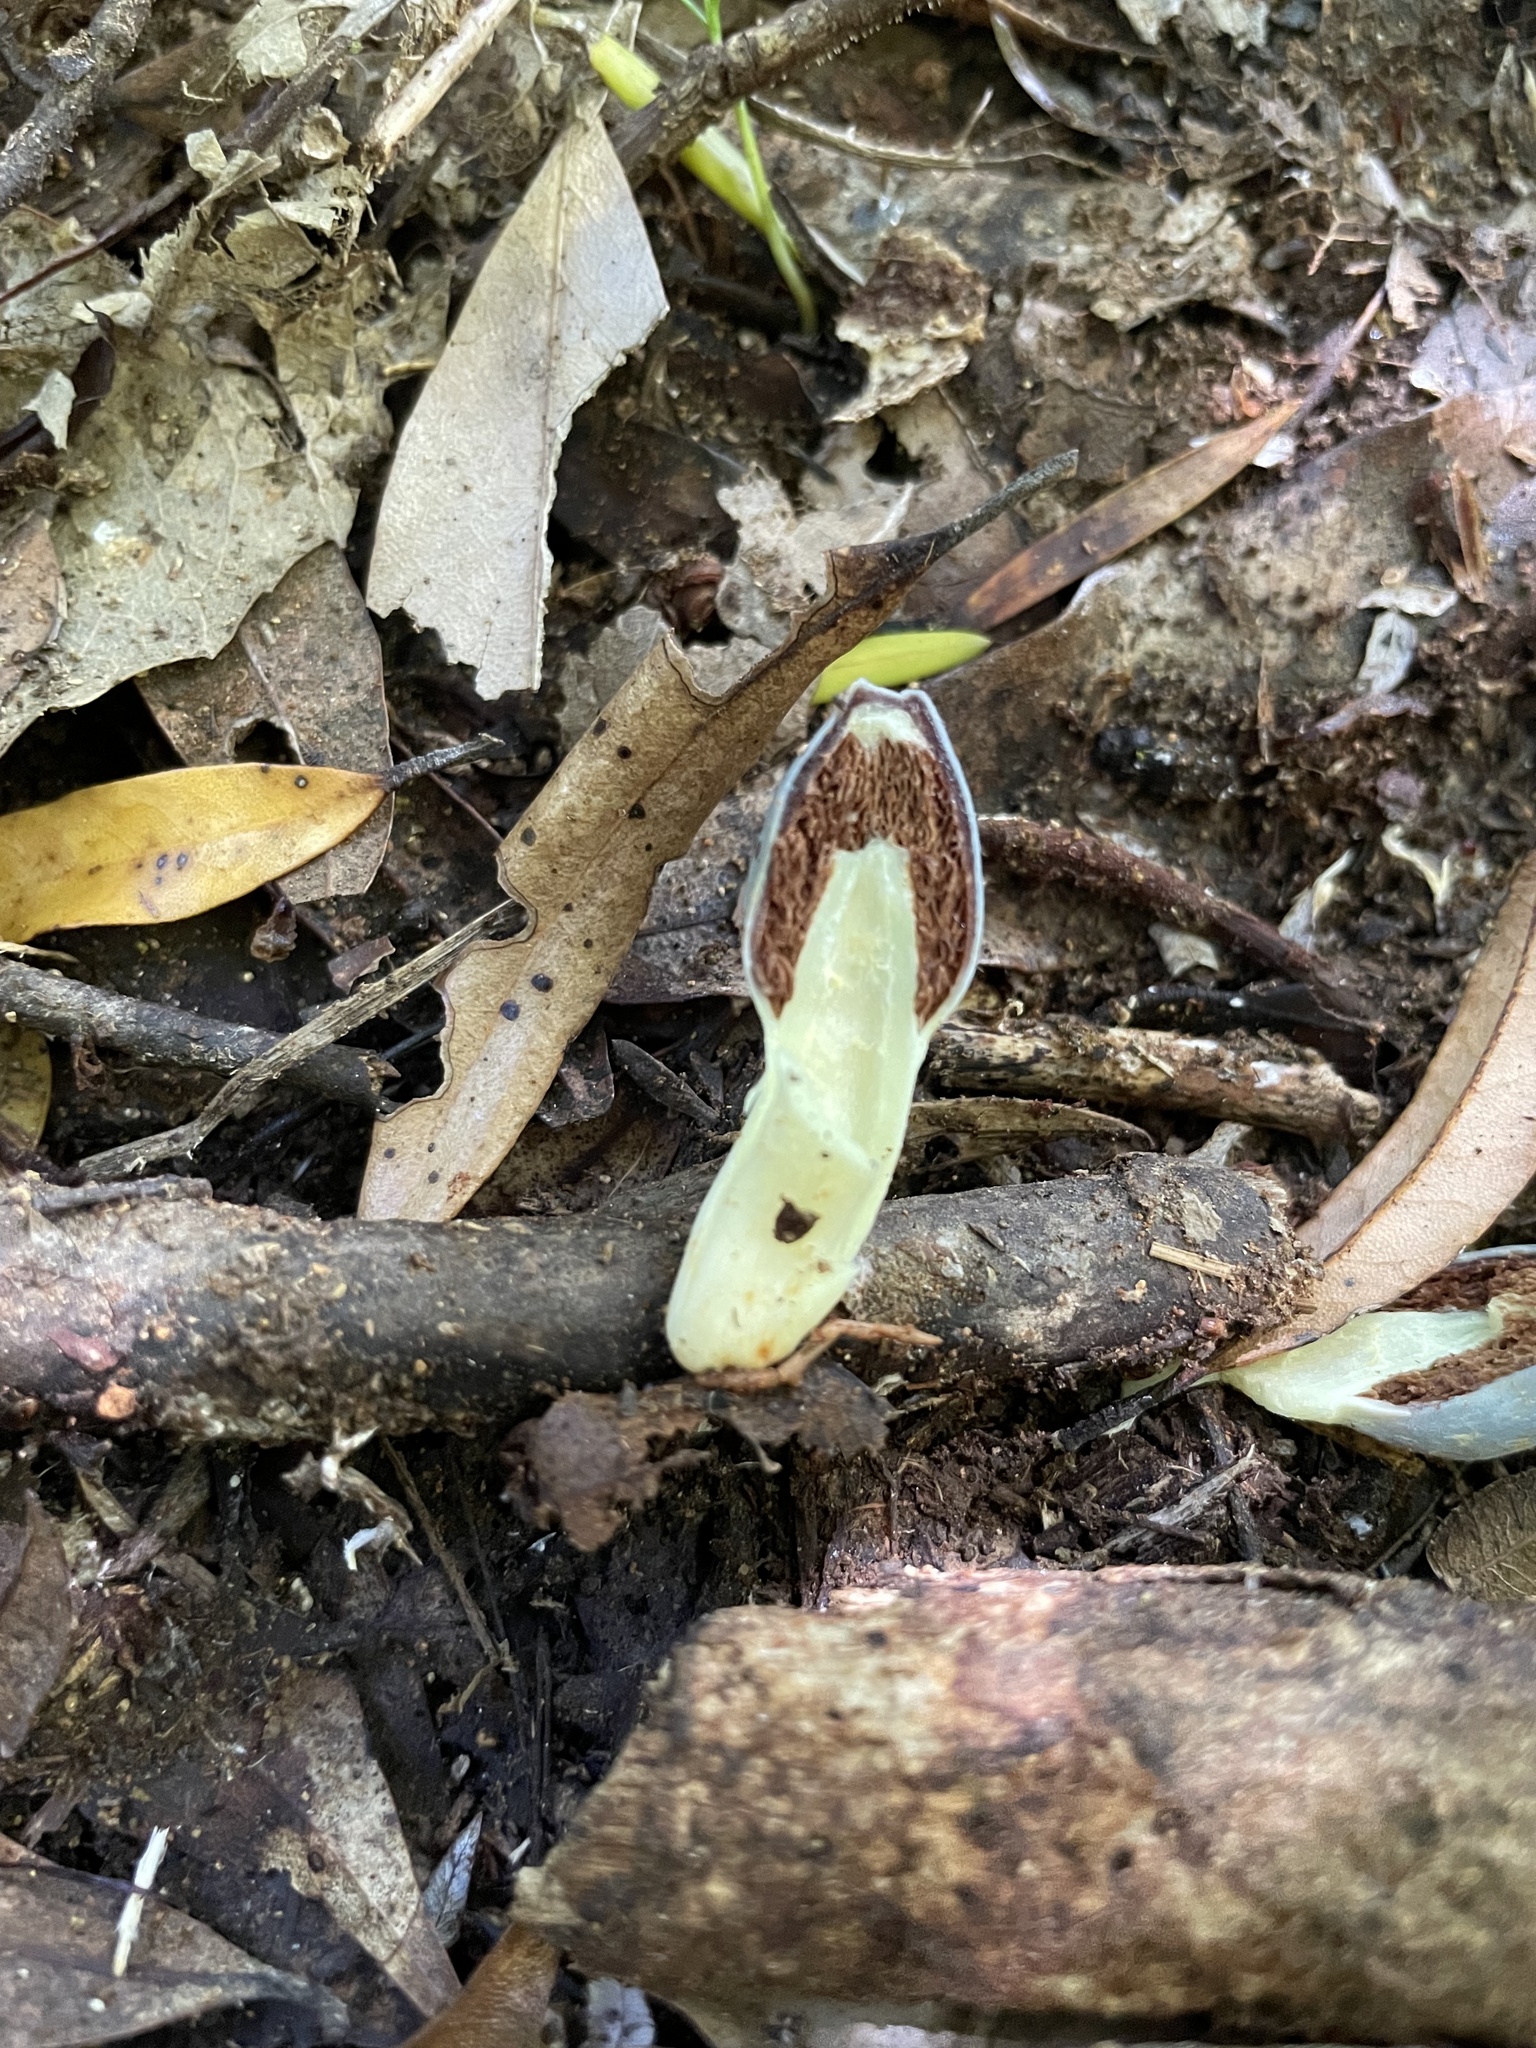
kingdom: Fungi
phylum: Basidiomycota
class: Agaricomycetes
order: Agaricales
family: Agaricaceae
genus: Clavogaster
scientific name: Clavogaster virescens
